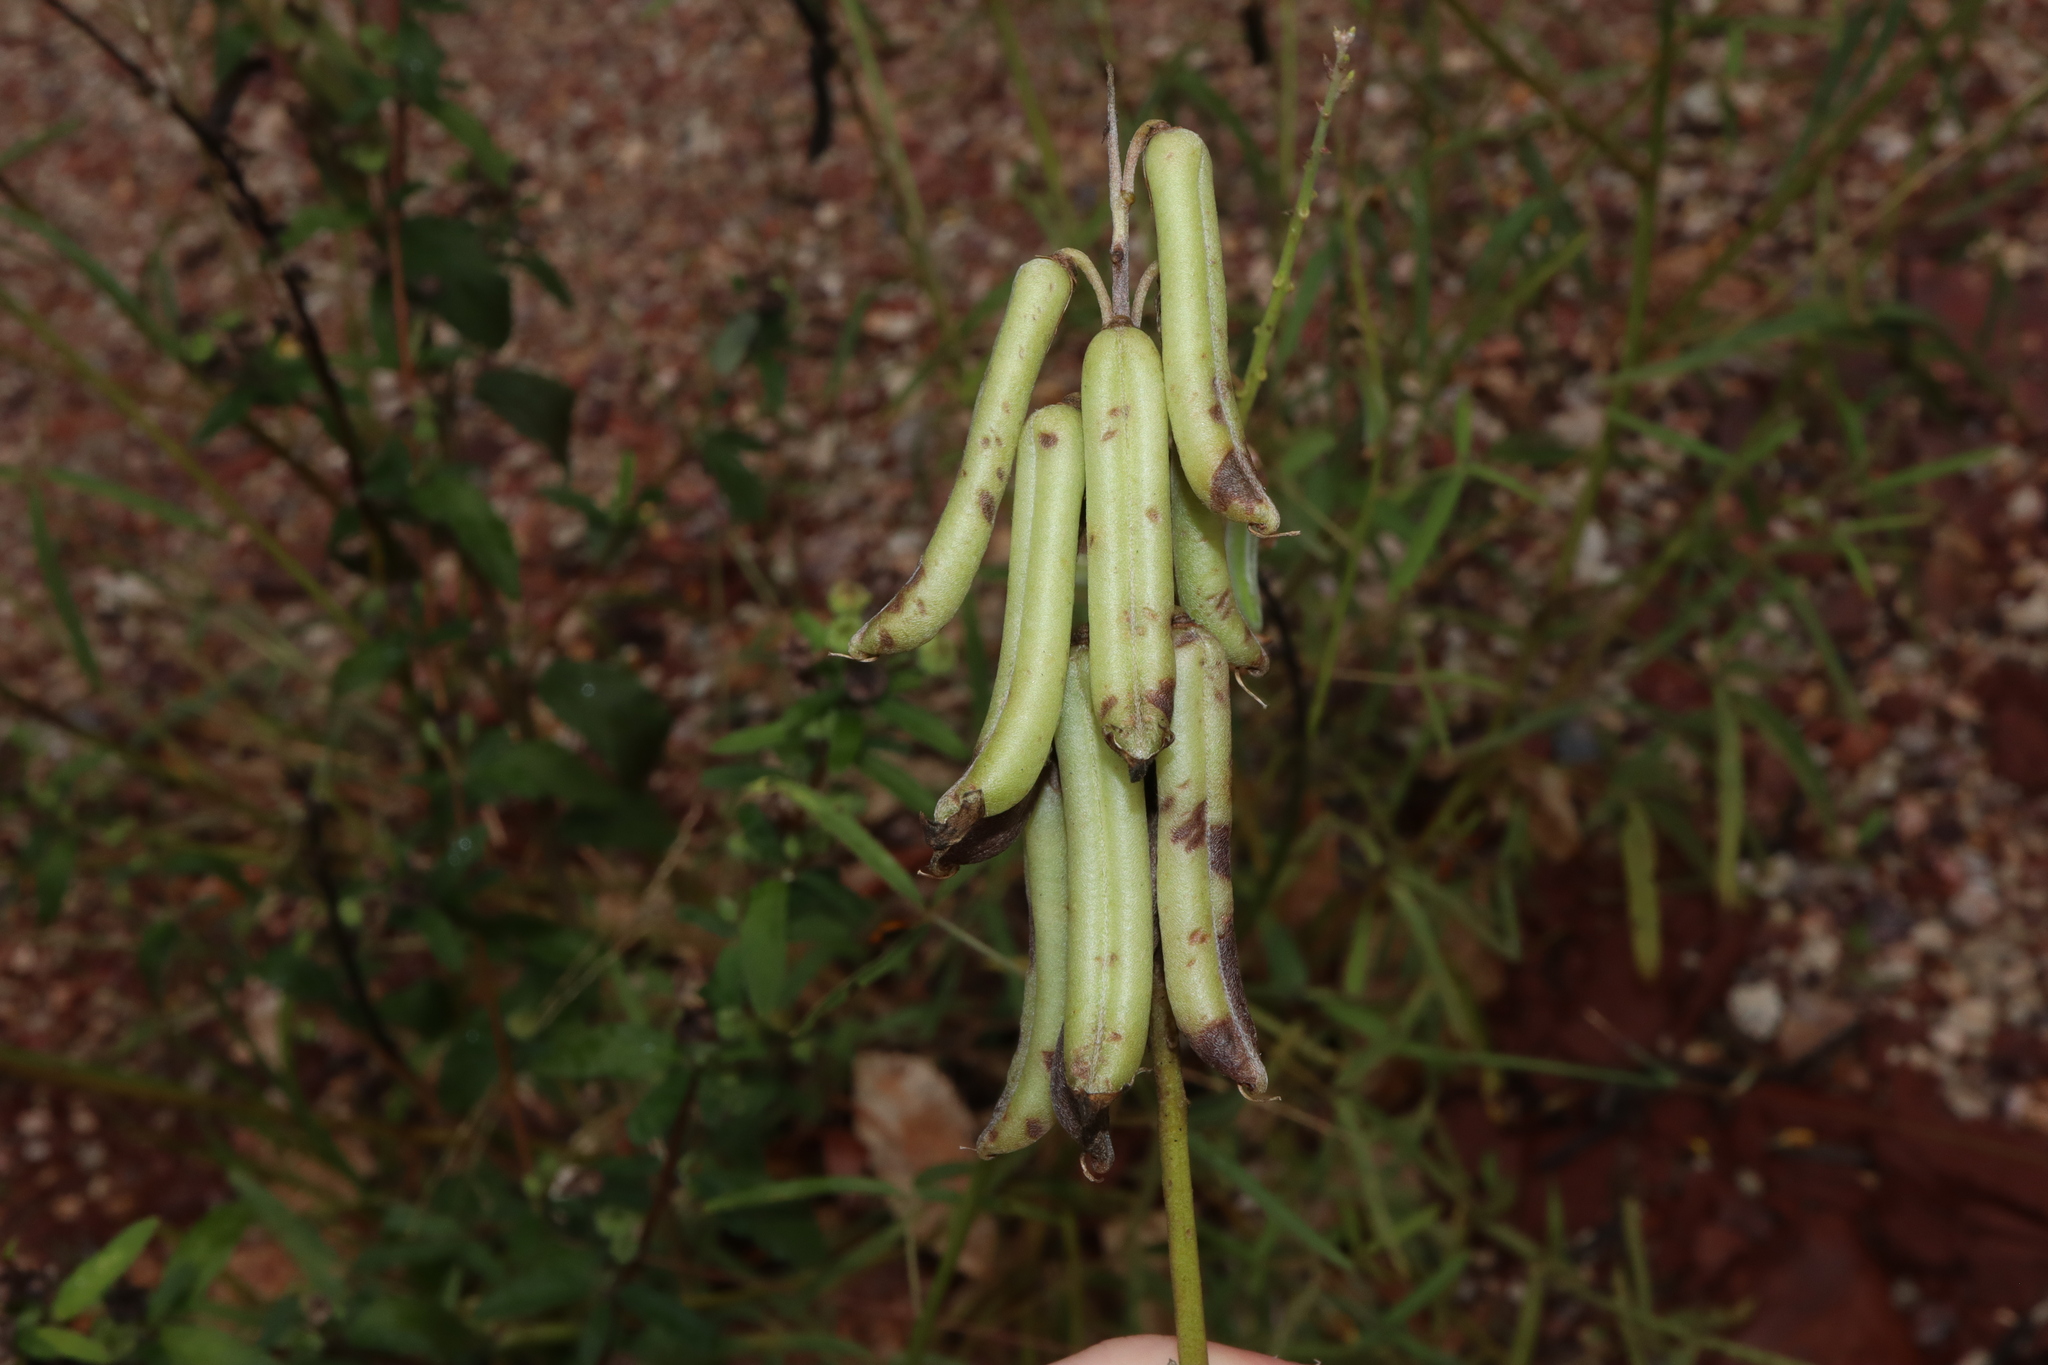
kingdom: Plantae
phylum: Tracheophyta
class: Magnoliopsida
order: Fabales
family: Fabaceae
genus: Crotalaria
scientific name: Crotalaria lanceolata
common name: Lanceleaf rattlebox
